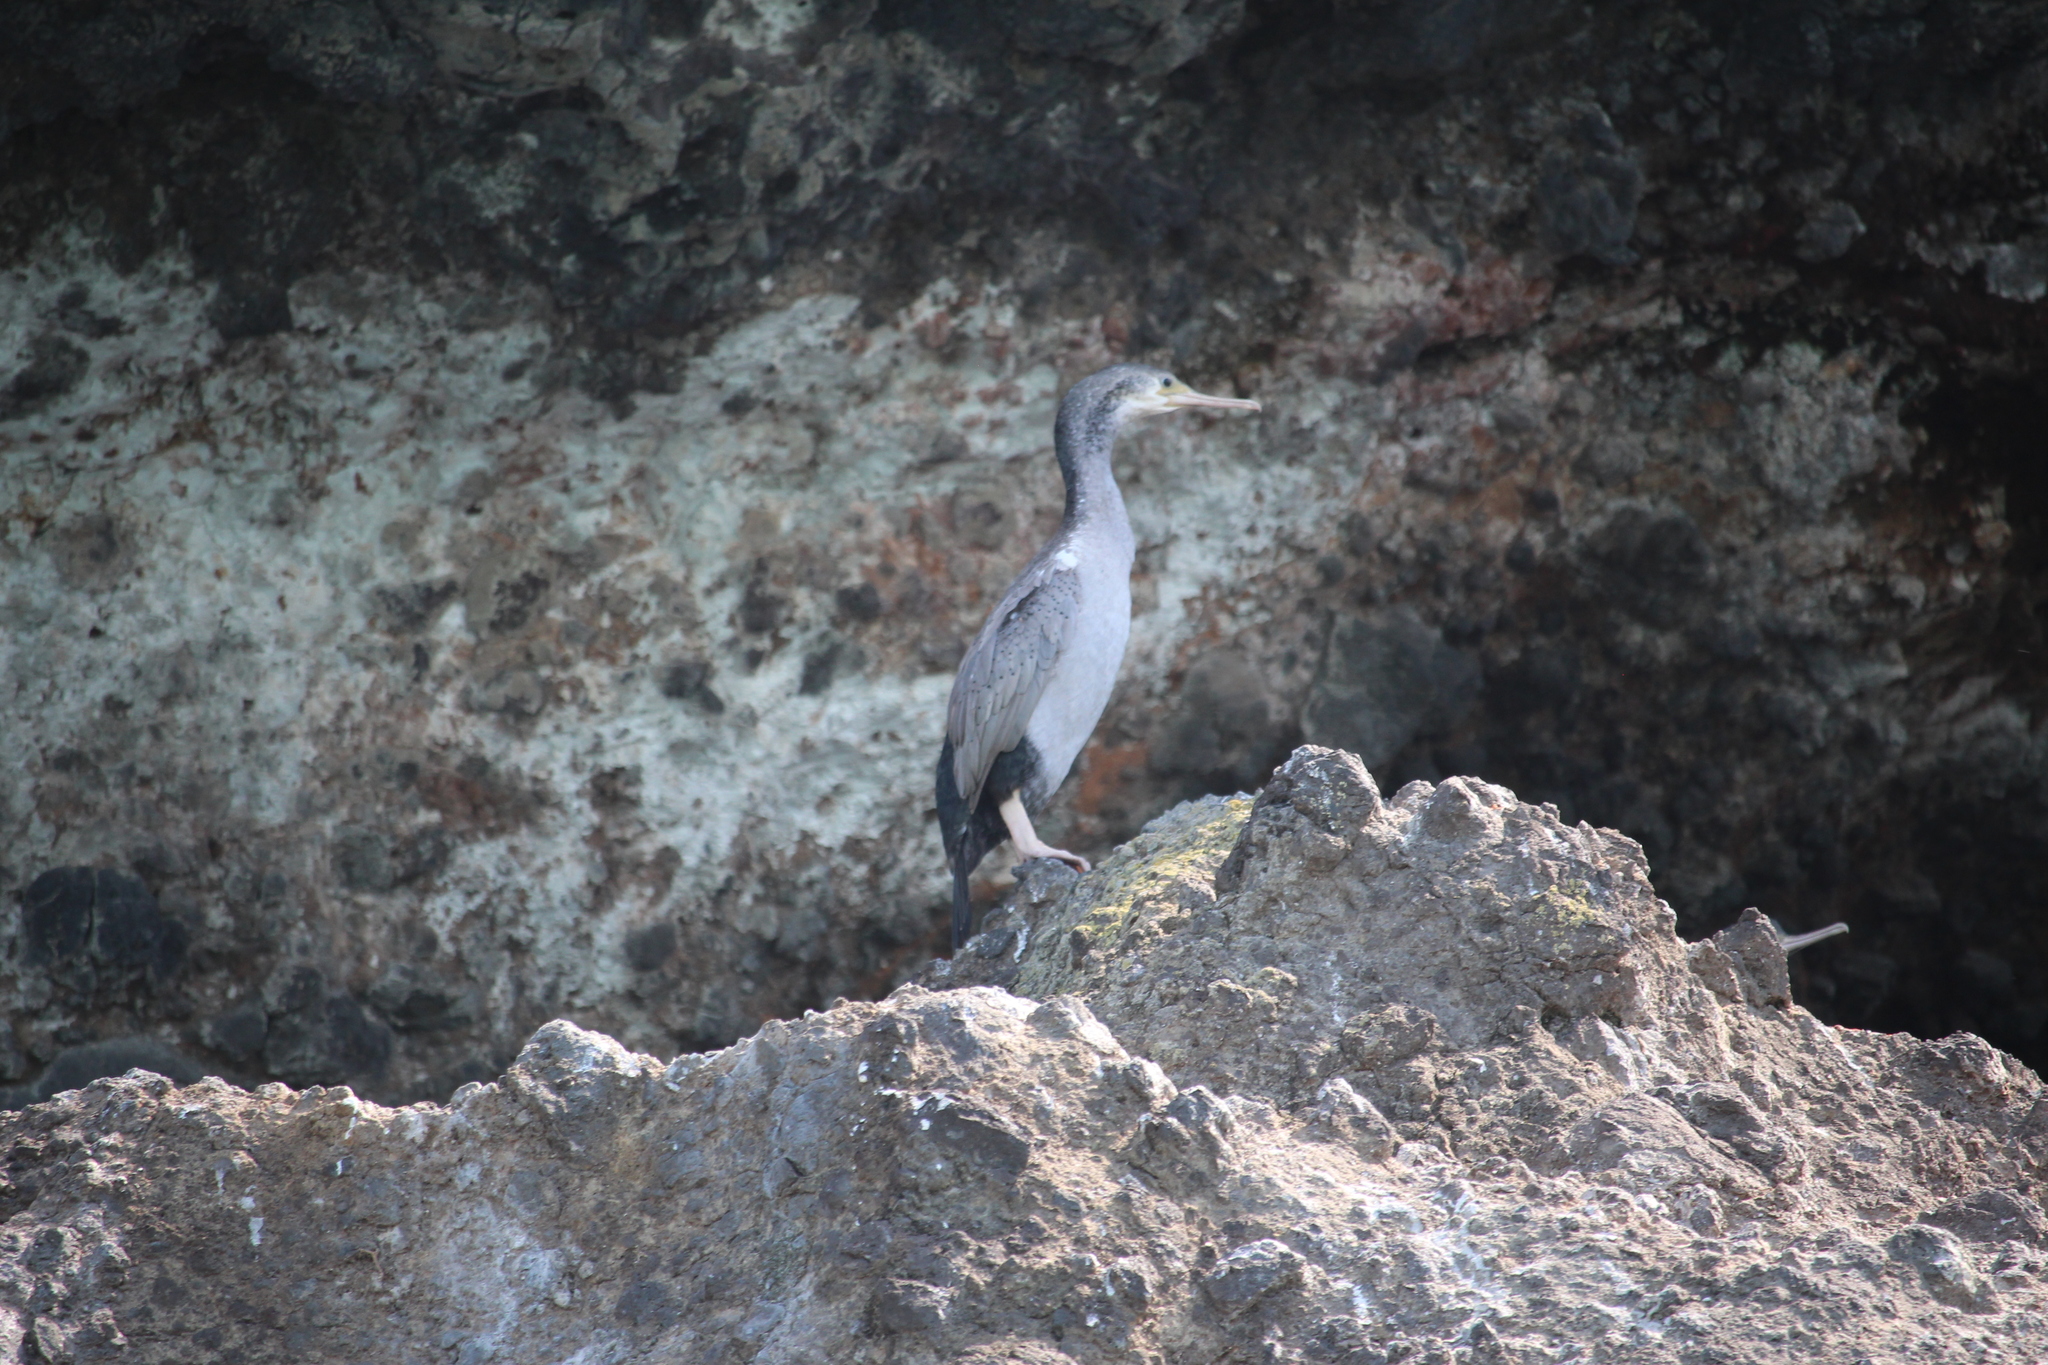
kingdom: Animalia
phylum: Chordata
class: Aves
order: Suliformes
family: Phalacrocoracidae
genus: Phalacrocorax
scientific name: Phalacrocorax punctatus
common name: Spotted shag
